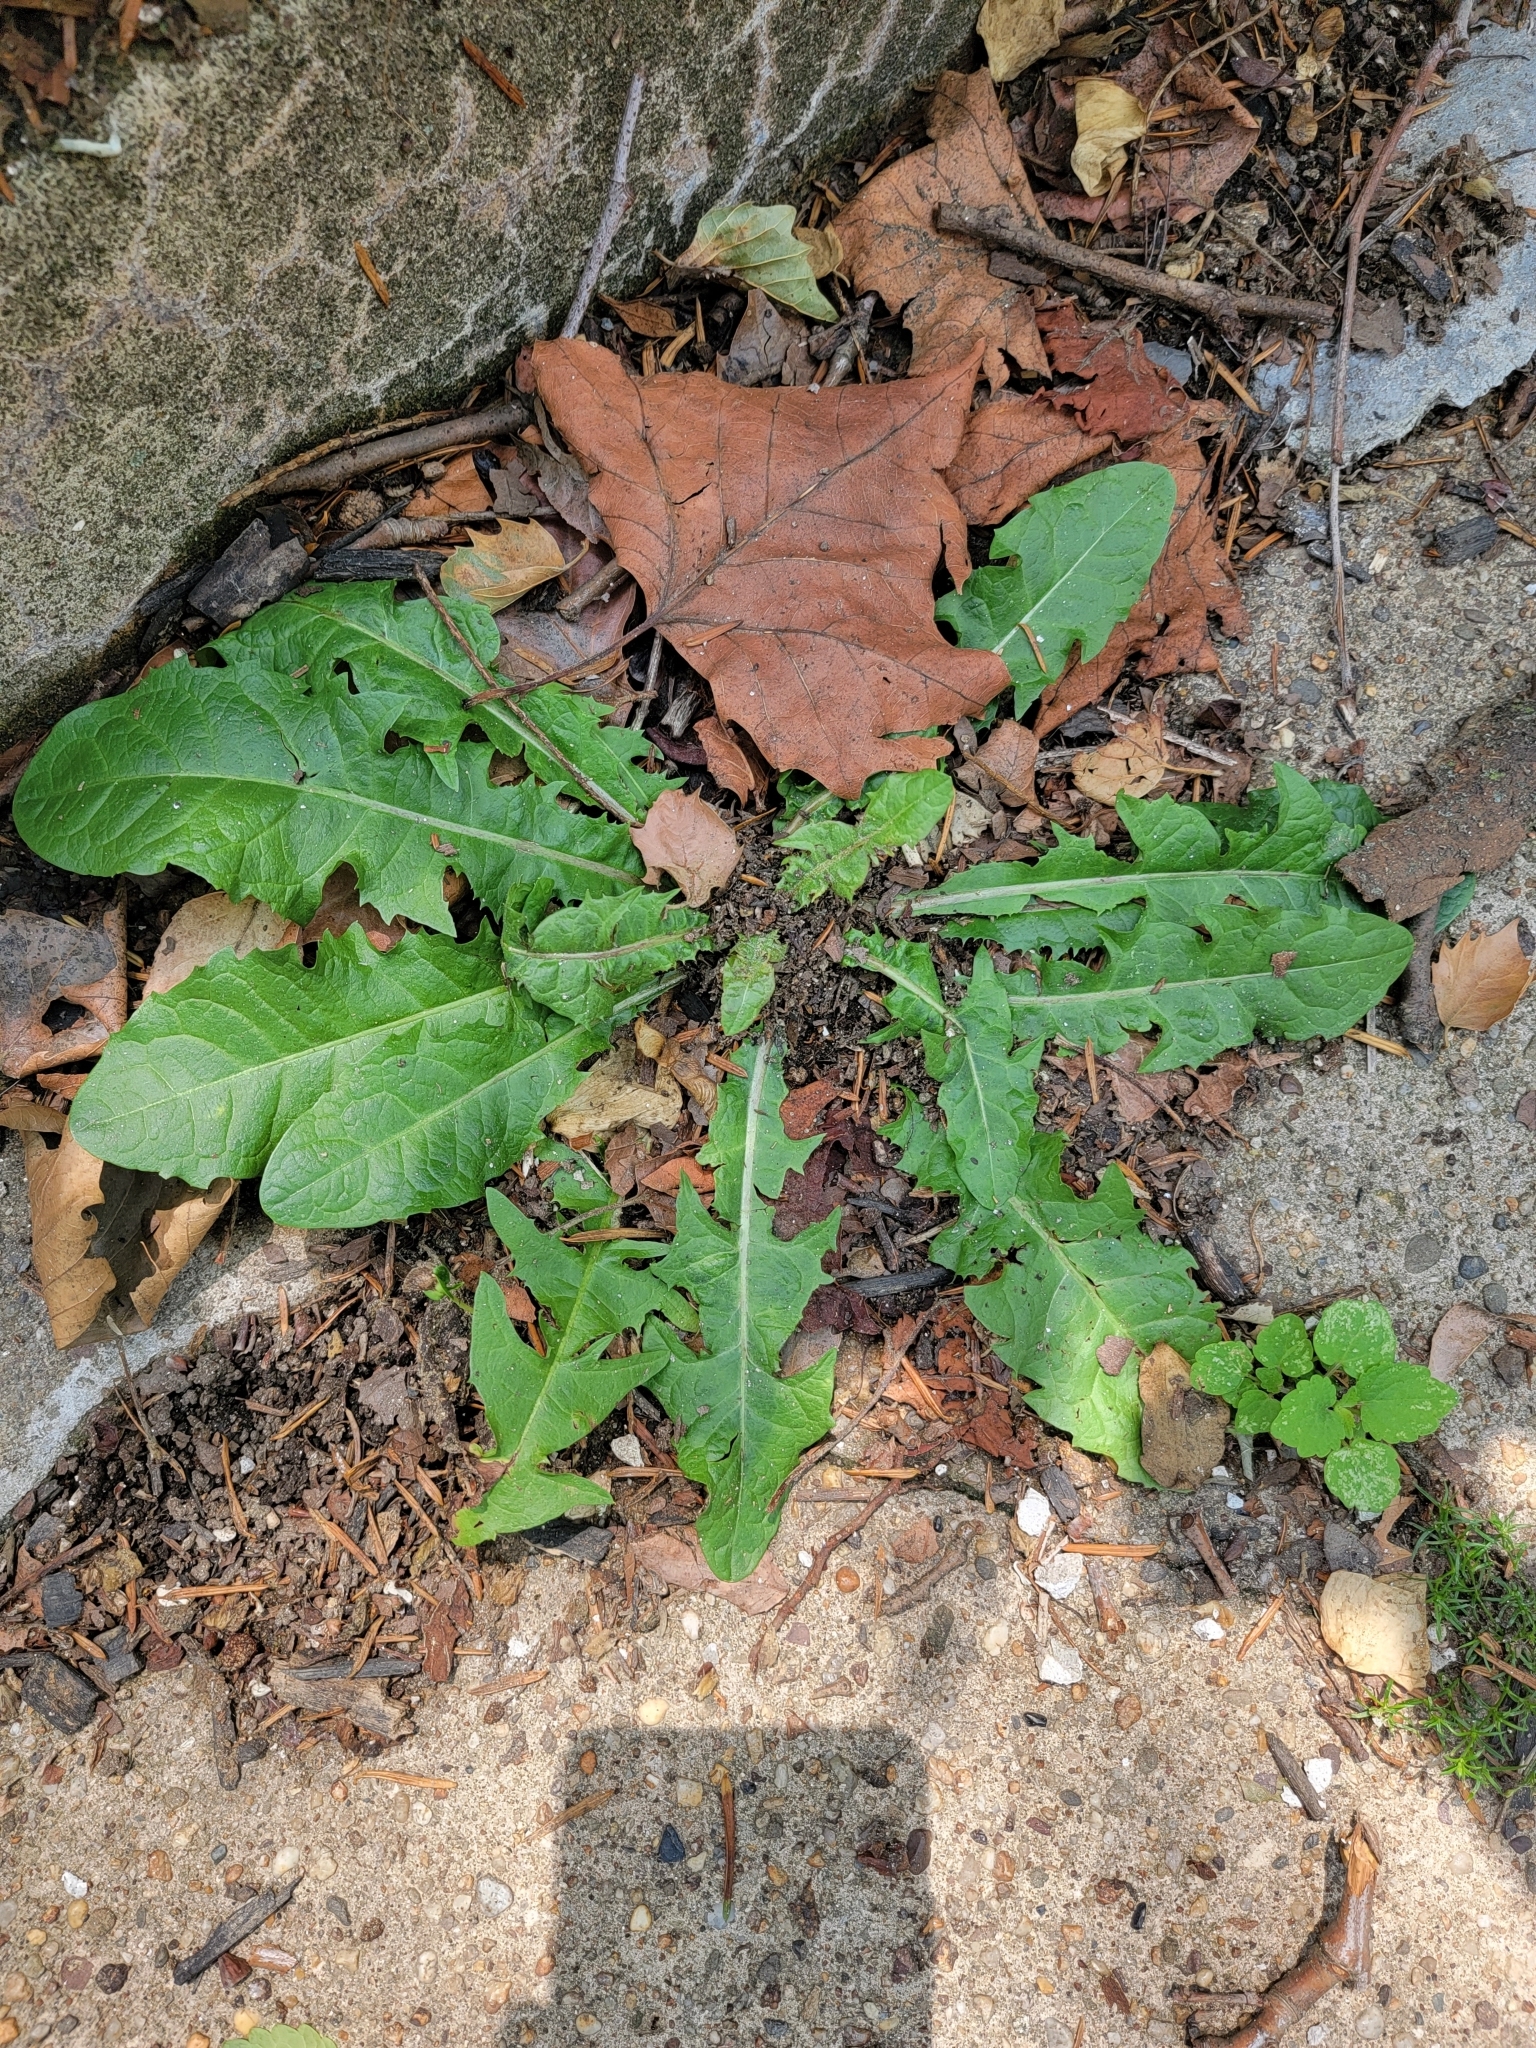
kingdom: Plantae
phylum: Tracheophyta
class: Magnoliopsida
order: Asterales
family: Asteraceae
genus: Taraxacum
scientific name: Taraxacum officinale
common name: Common dandelion
